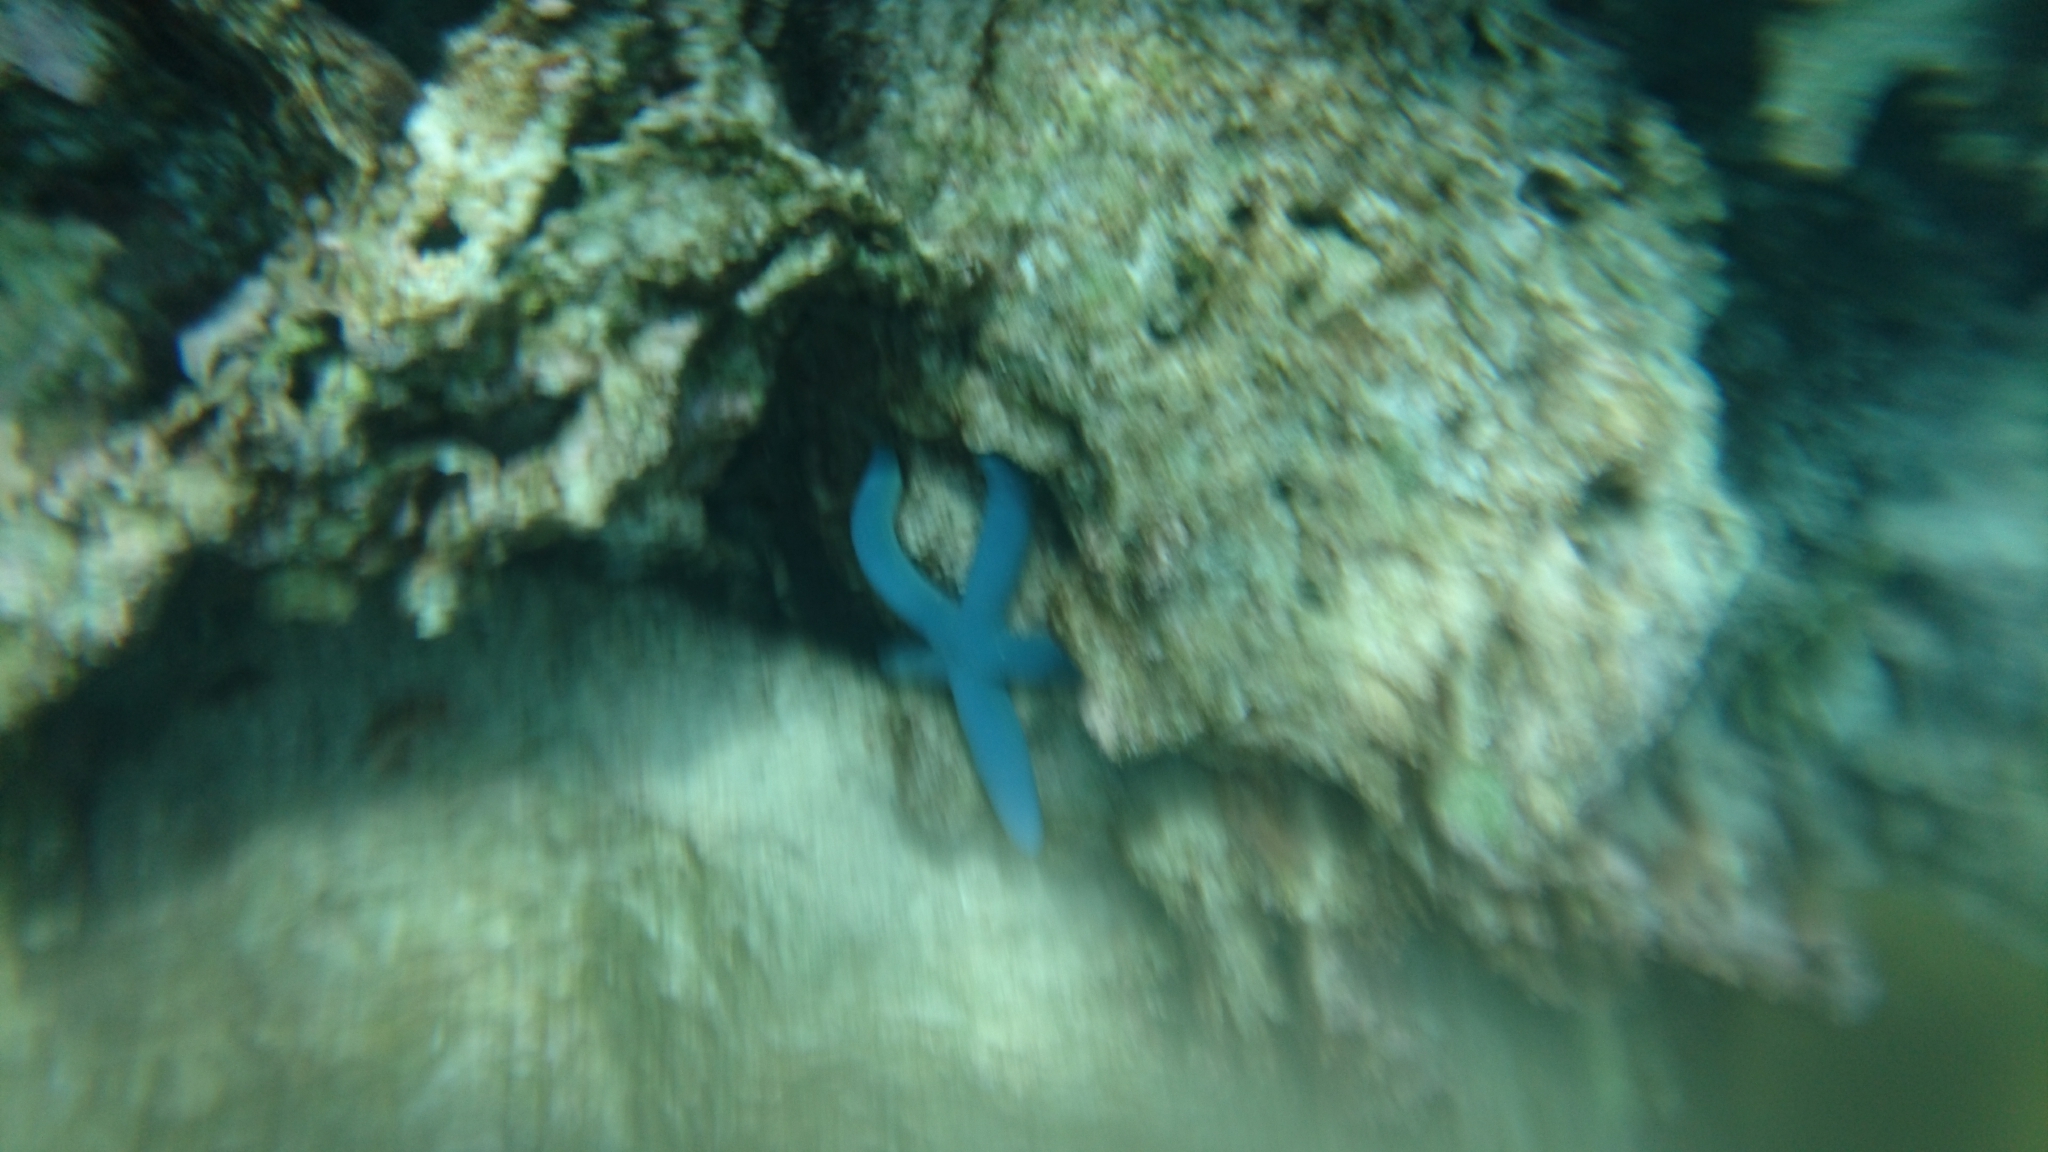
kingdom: Animalia
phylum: Echinodermata
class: Asteroidea
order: Valvatida
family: Ophidiasteridae
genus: Linckia
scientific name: Linckia laevigata
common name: Azure sea star
